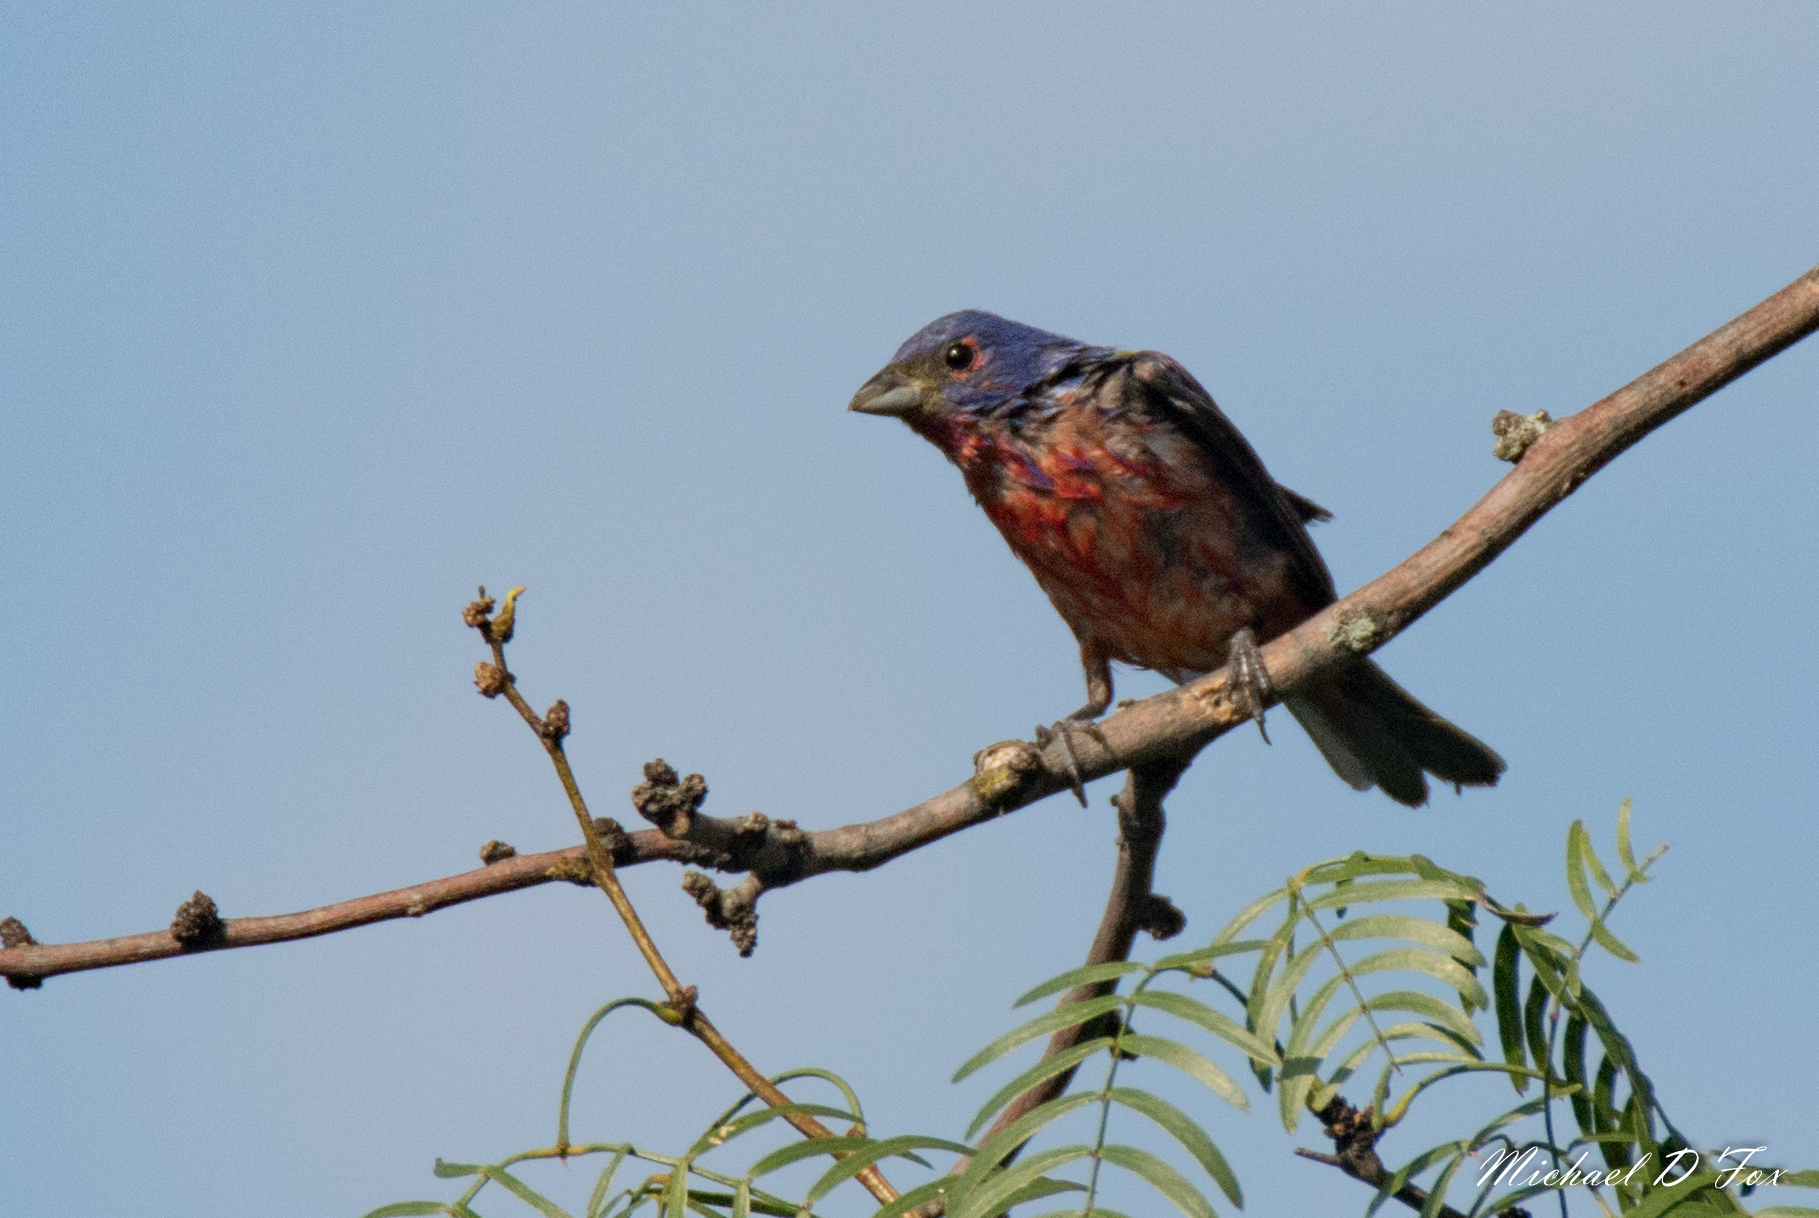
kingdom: Animalia
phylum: Chordata
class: Aves
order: Passeriformes
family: Cardinalidae
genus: Passerina
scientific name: Passerina ciris
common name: Painted bunting
